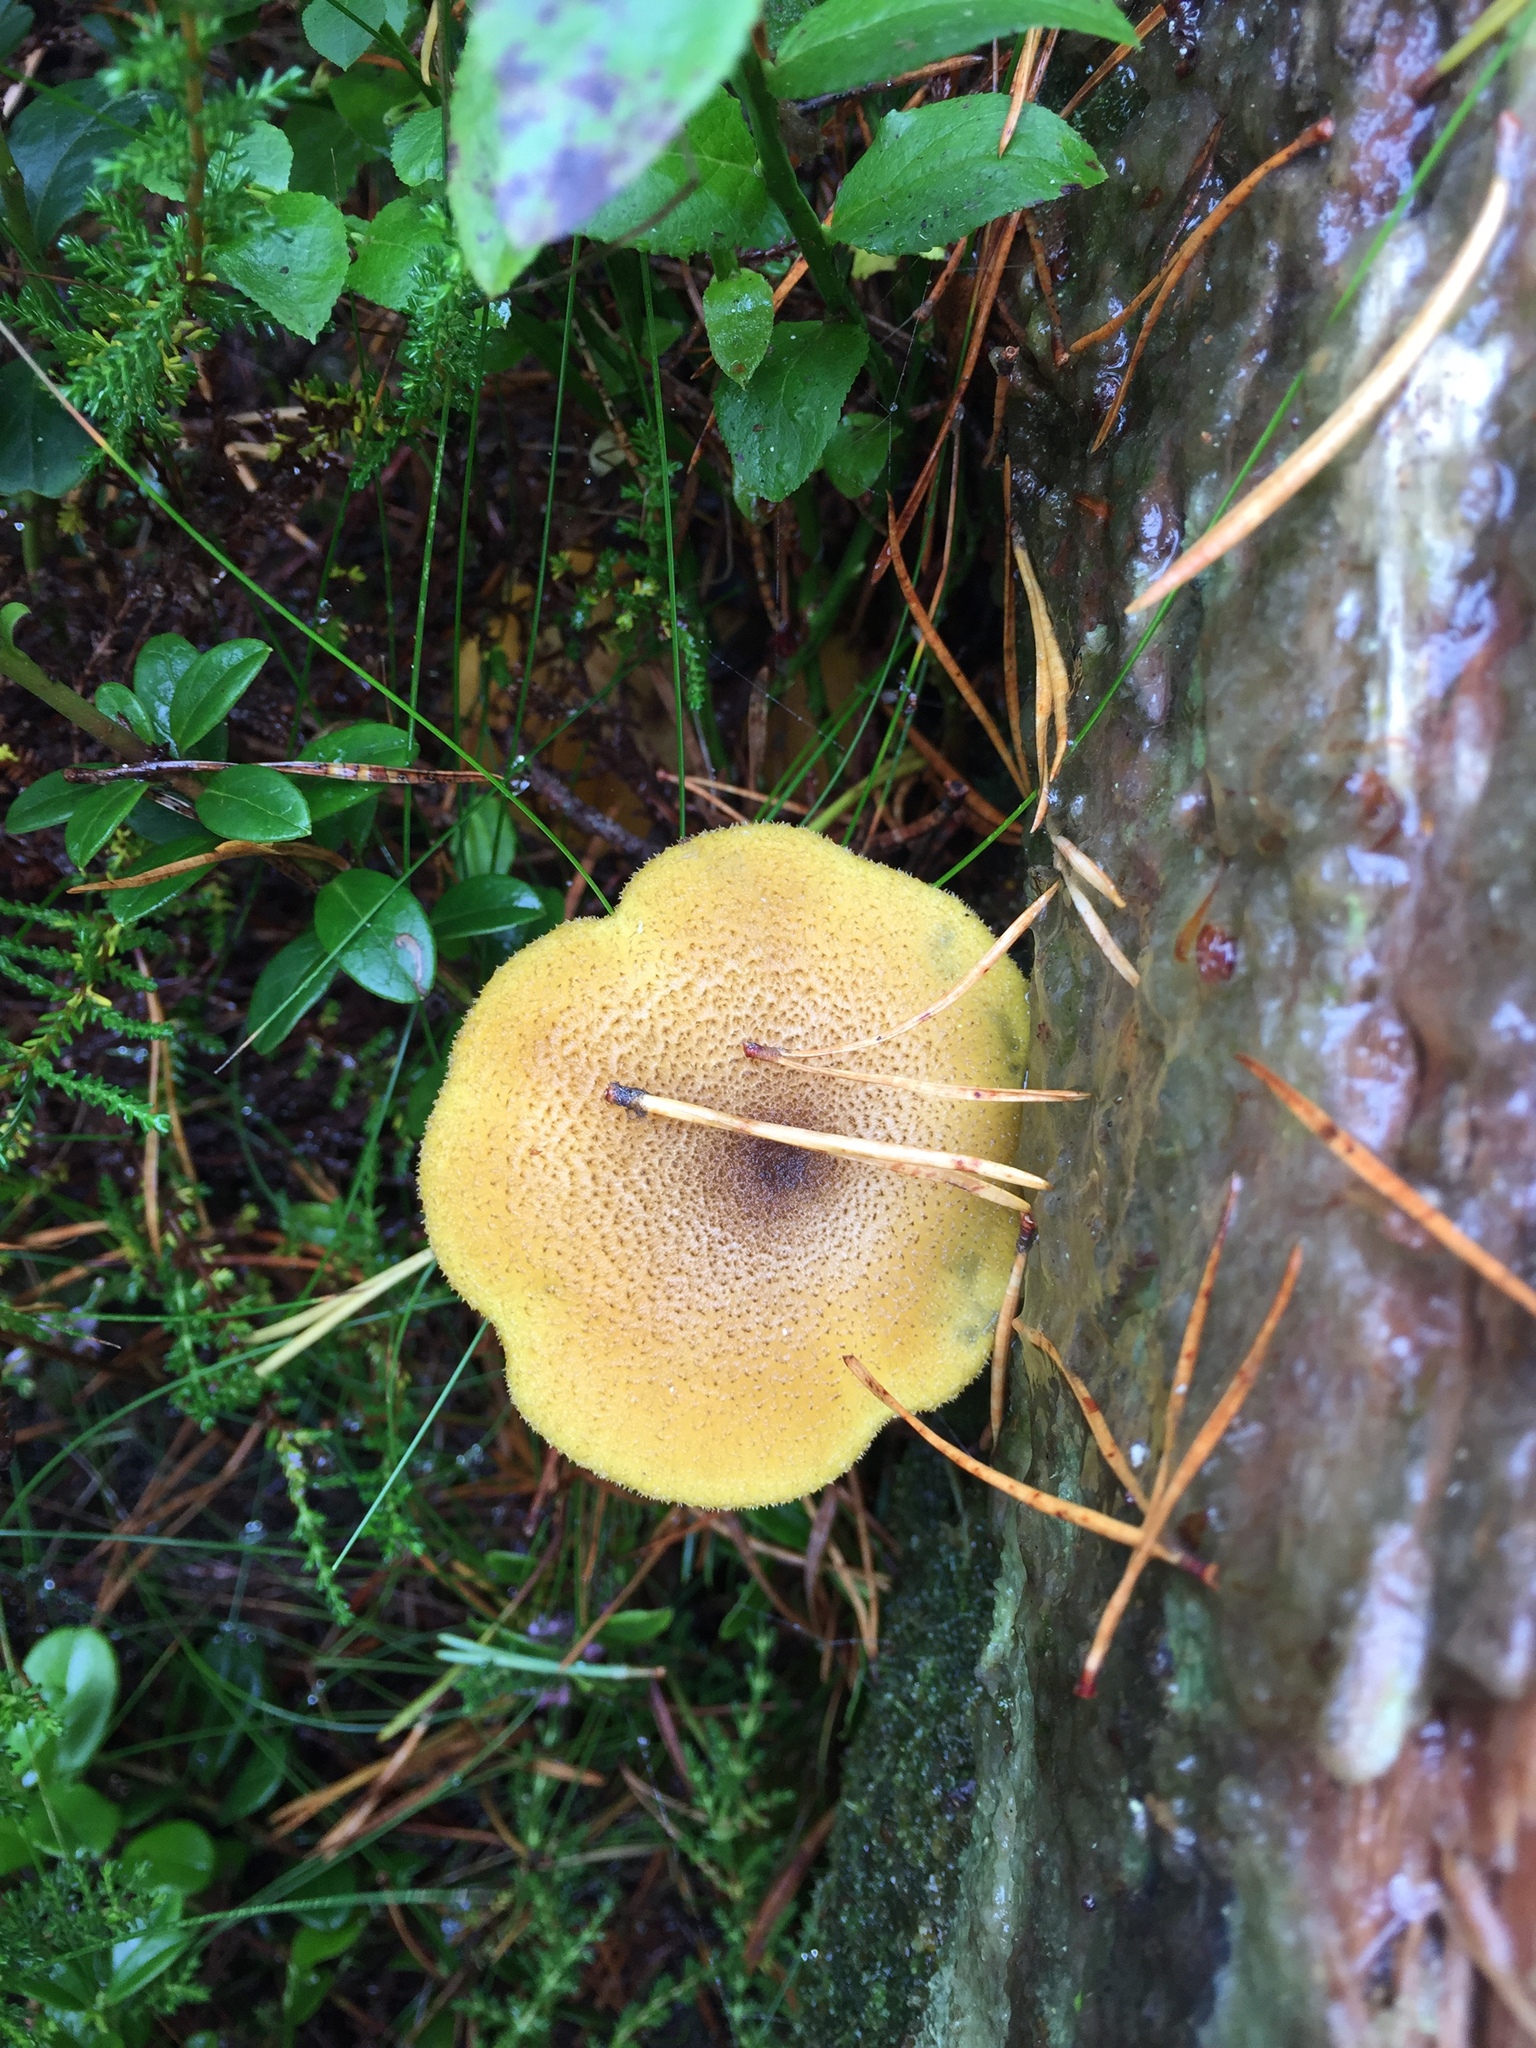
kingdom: Fungi
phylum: Basidiomycota
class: Agaricomycetes
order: Agaricales
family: Tricholomataceae
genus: Tricholomopsis
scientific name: Tricholomopsis decora
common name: Prunes and custard
